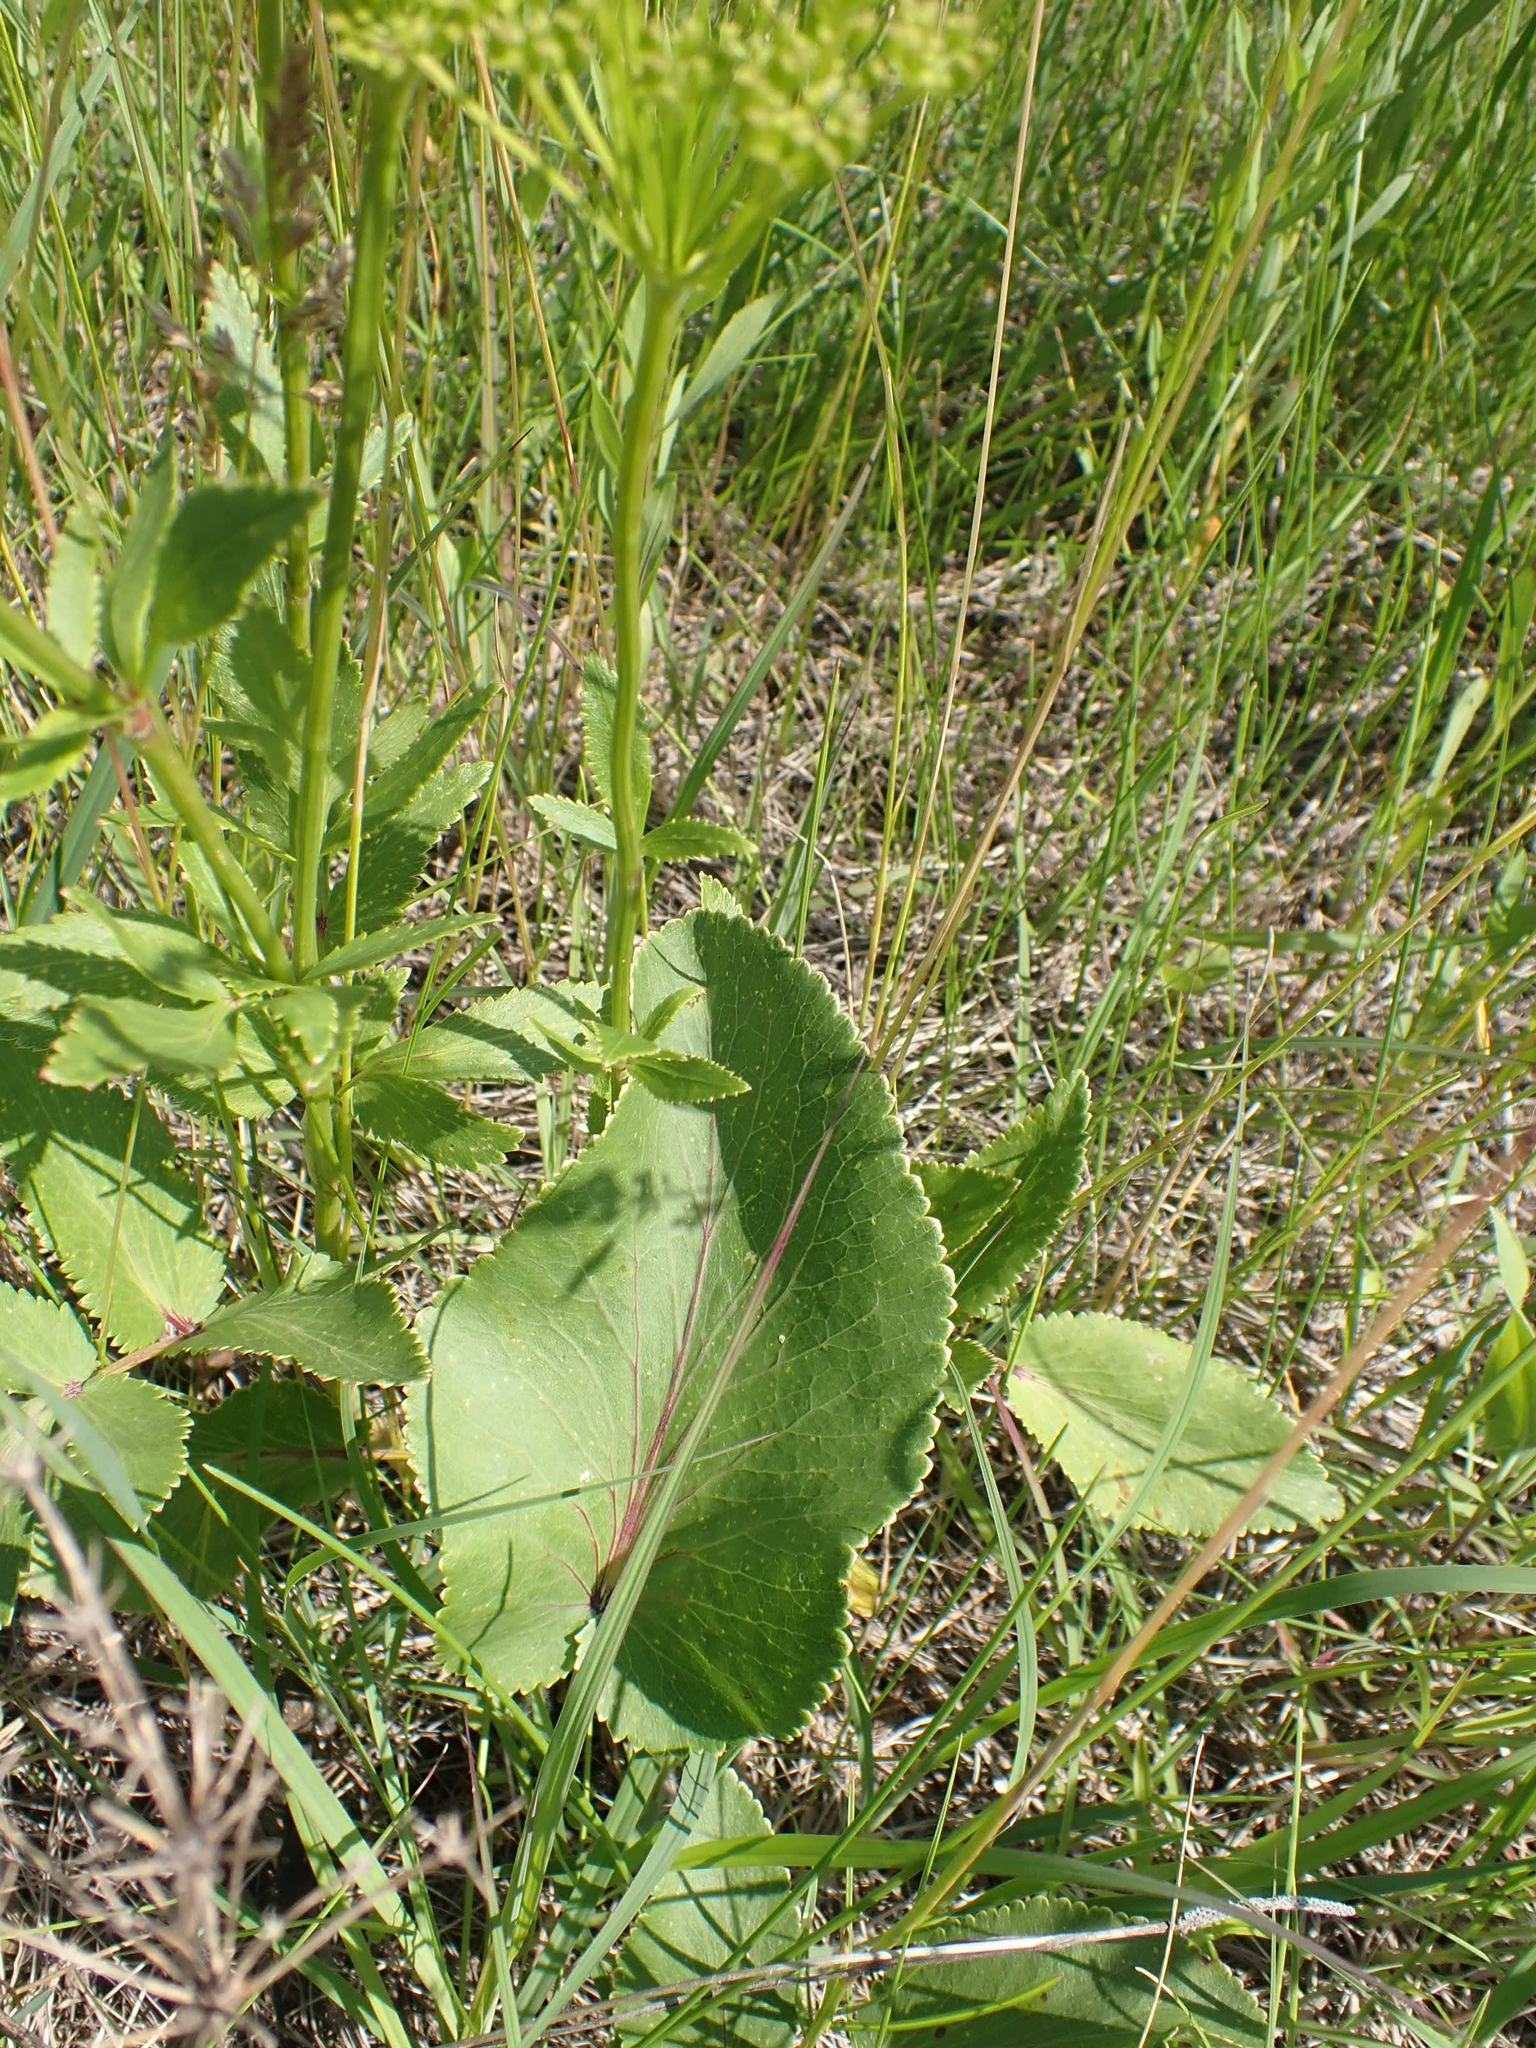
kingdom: Plantae
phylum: Tracheophyta
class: Magnoliopsida
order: Apiales
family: Apiaceae
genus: Zizia
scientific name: Zizia aptera
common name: Heart-leaved alexanders
